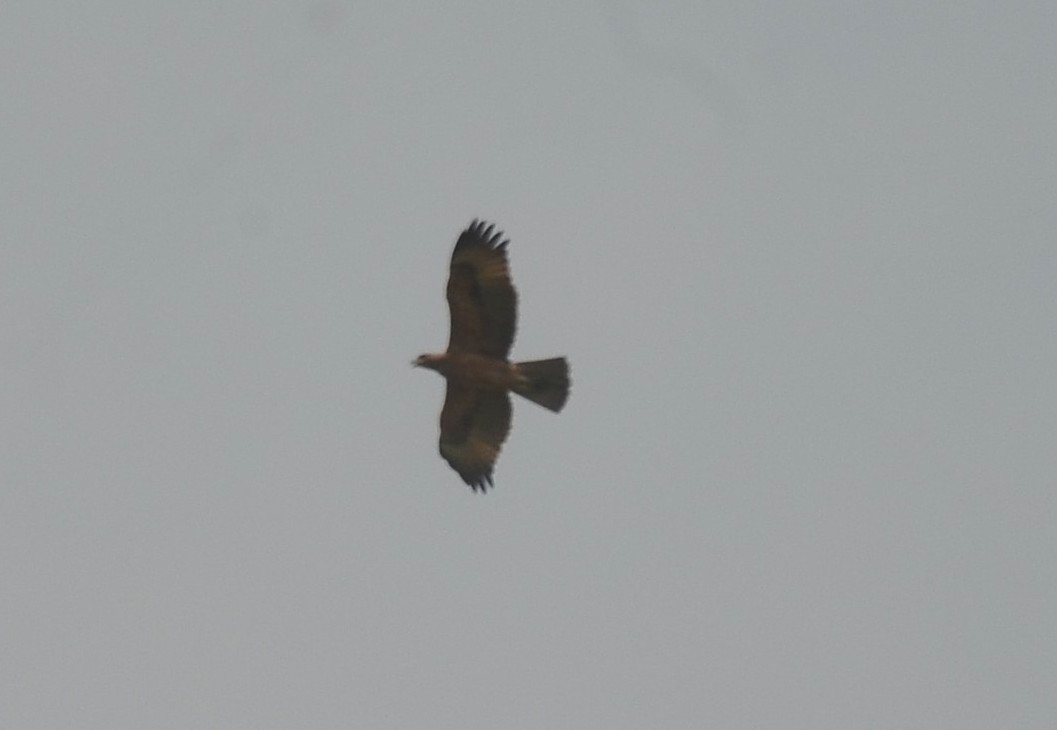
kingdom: Animalia
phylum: Chordata
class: Aves
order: Accipitriformes
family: Accipitridae
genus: Aquila
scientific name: Aquila fasciata
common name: Bonelli's eagle
